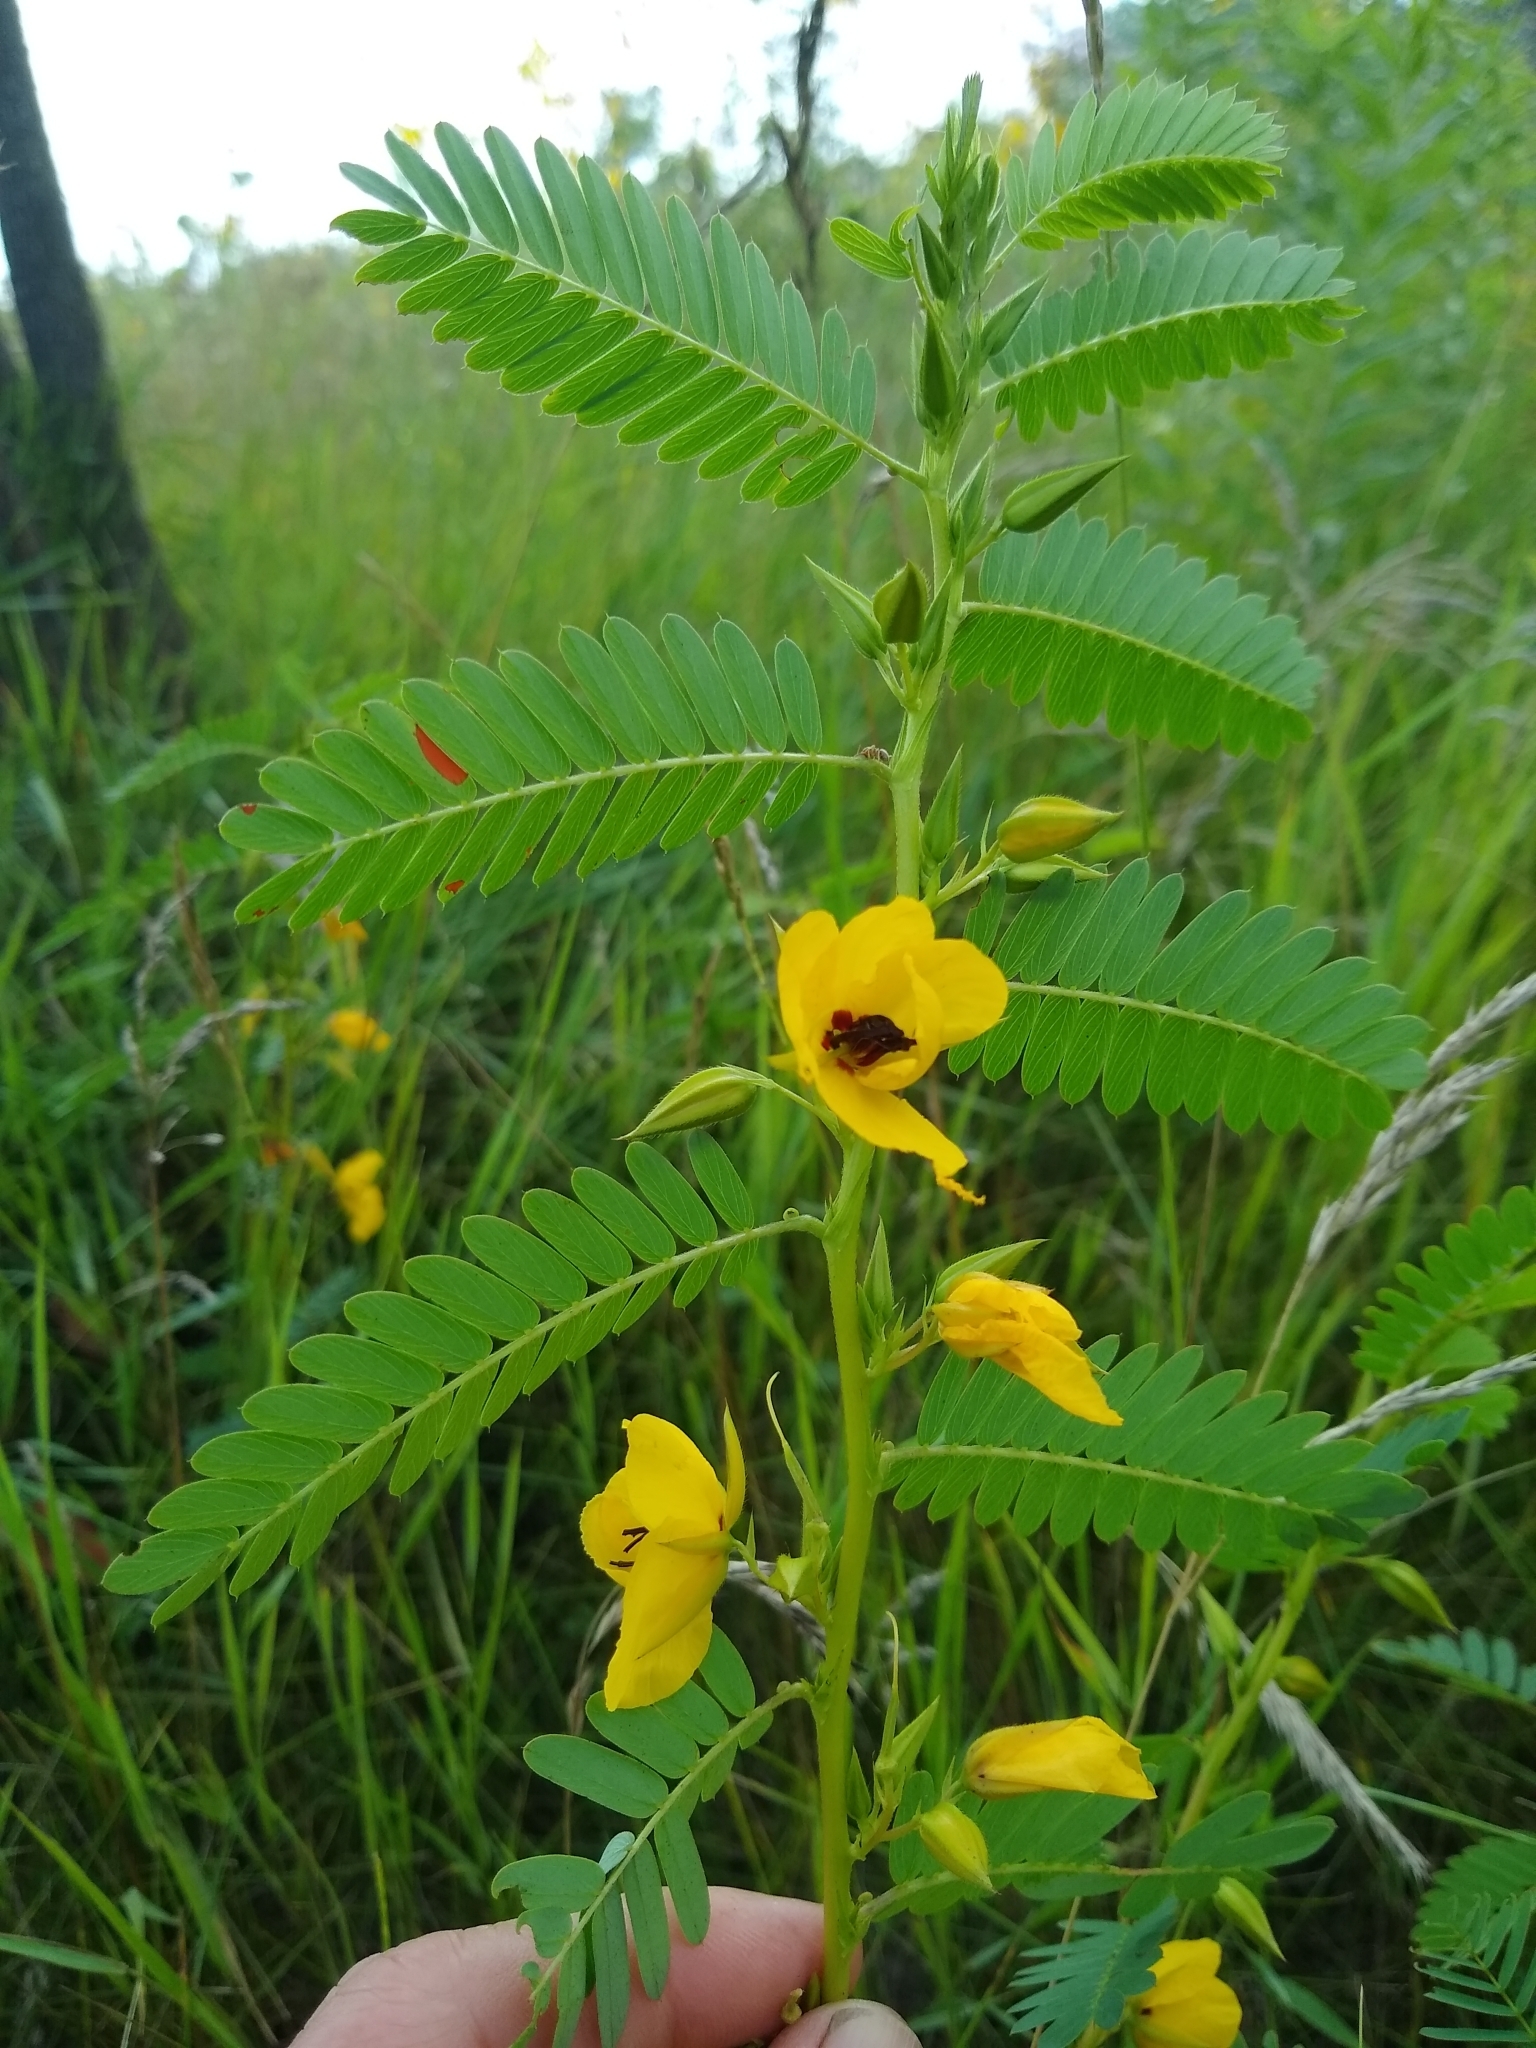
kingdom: Plantae
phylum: Tracheophyta
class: Magnoliopsida
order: Fabales
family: Fabaceae
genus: Chamaecrista
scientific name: Chamaecrista fasciculata
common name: Golden cassia
